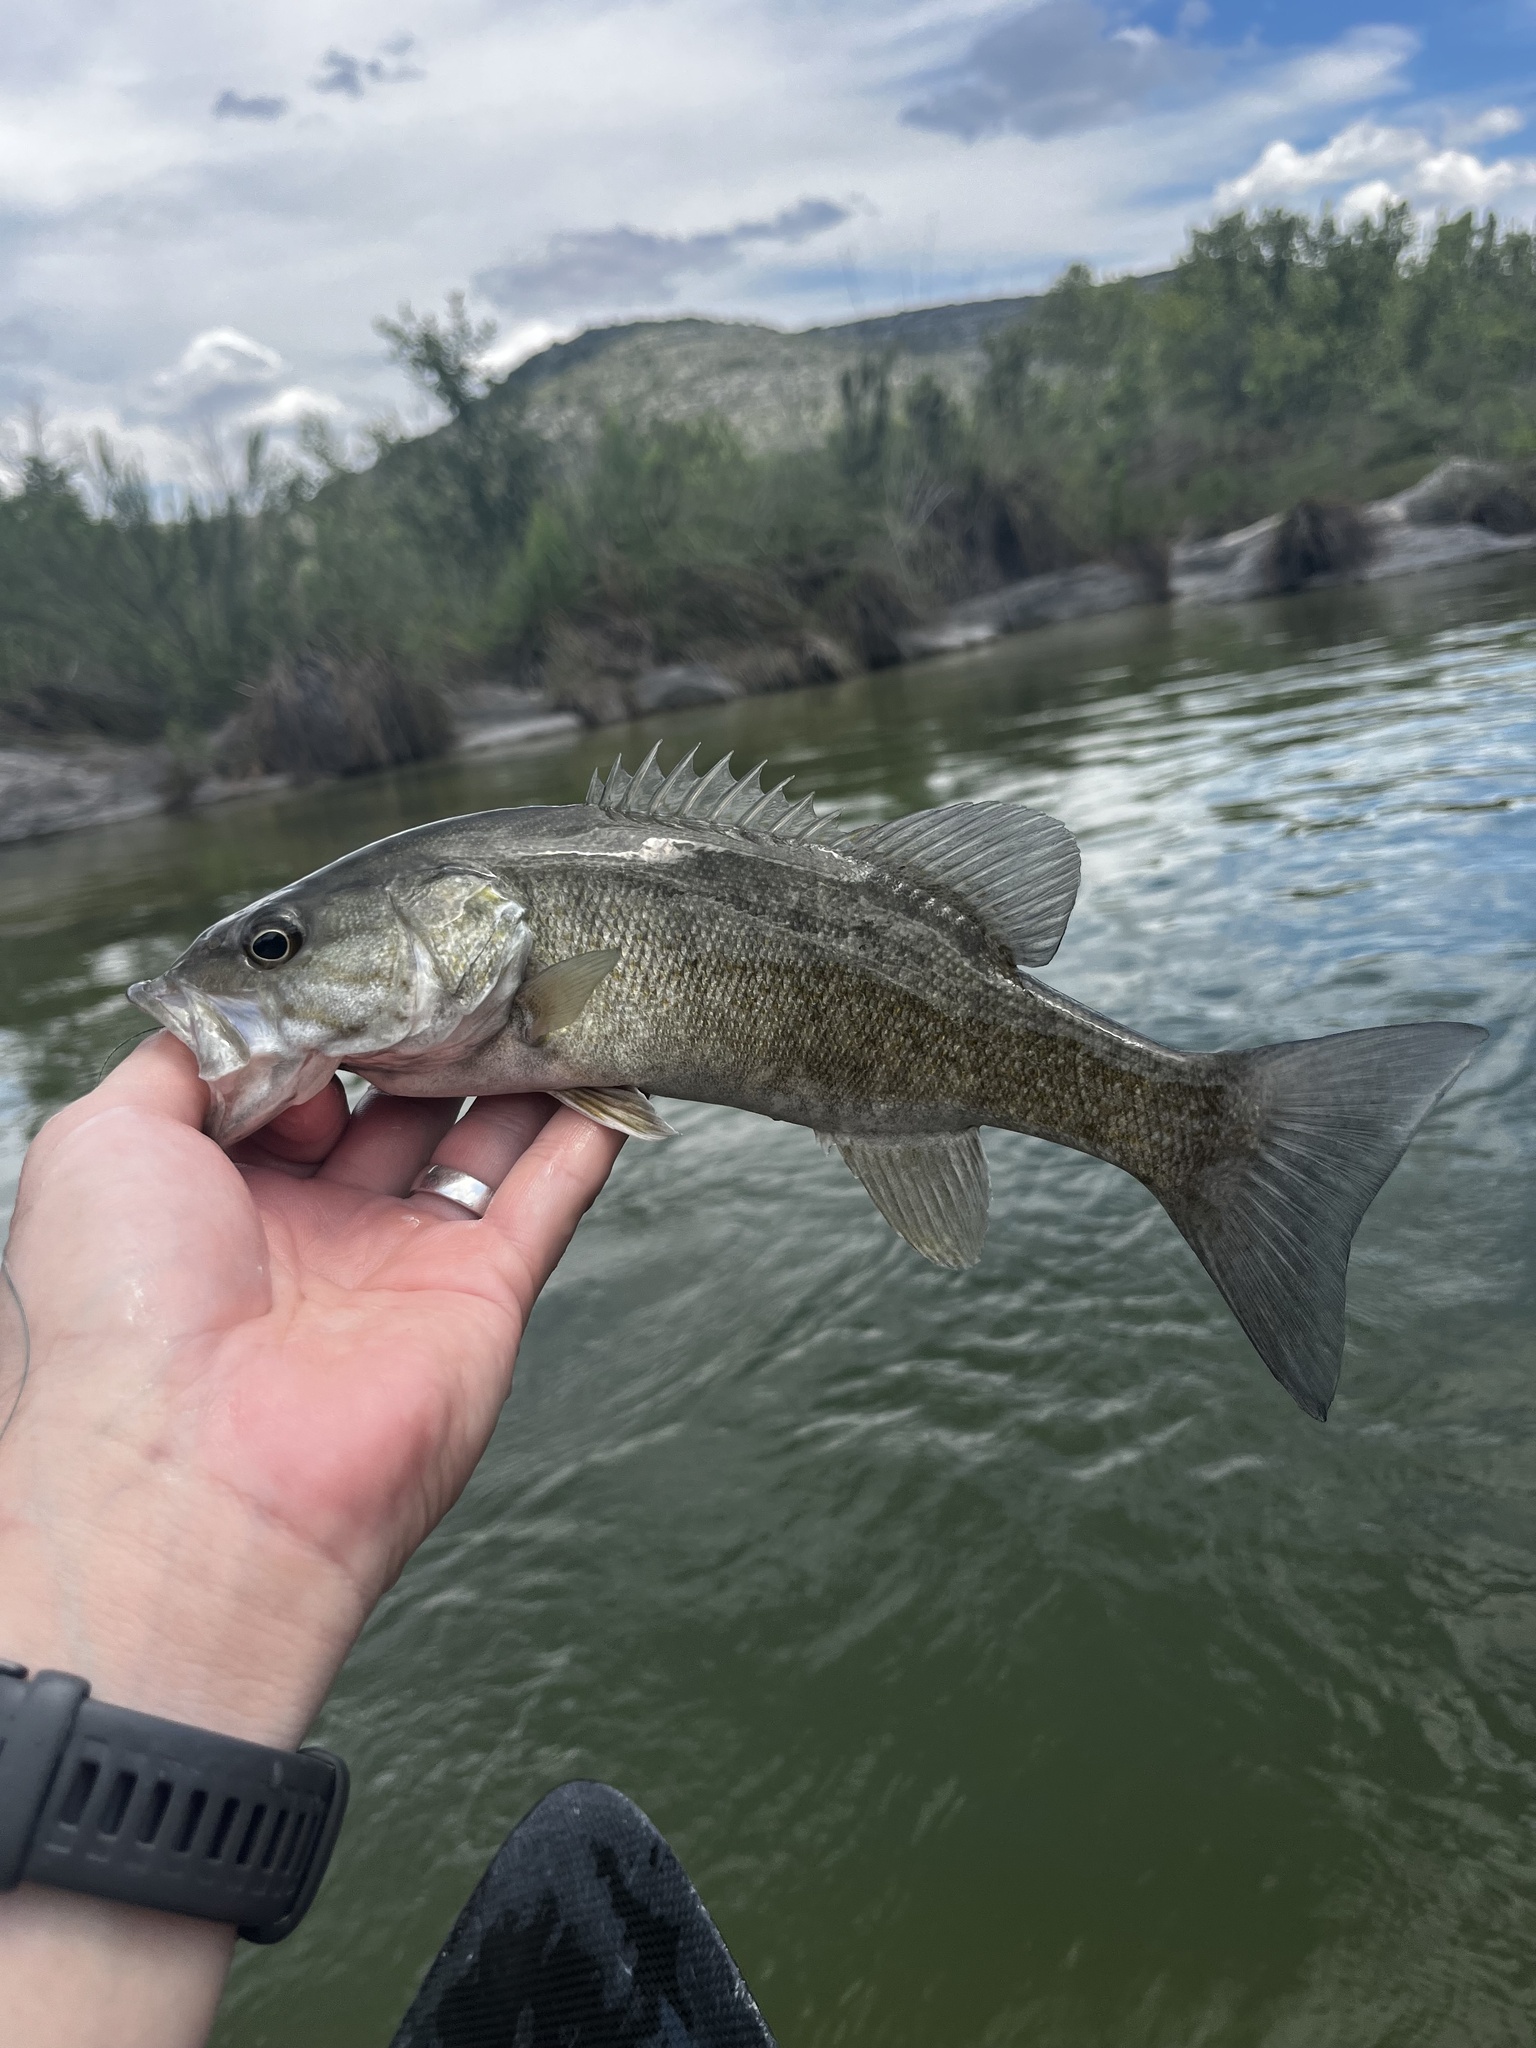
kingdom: Animalia
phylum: Chordata
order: Perciformes
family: Centrarchidae
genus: Micropterus
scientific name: Micropterus dolomieu
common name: Smallmouth bass
